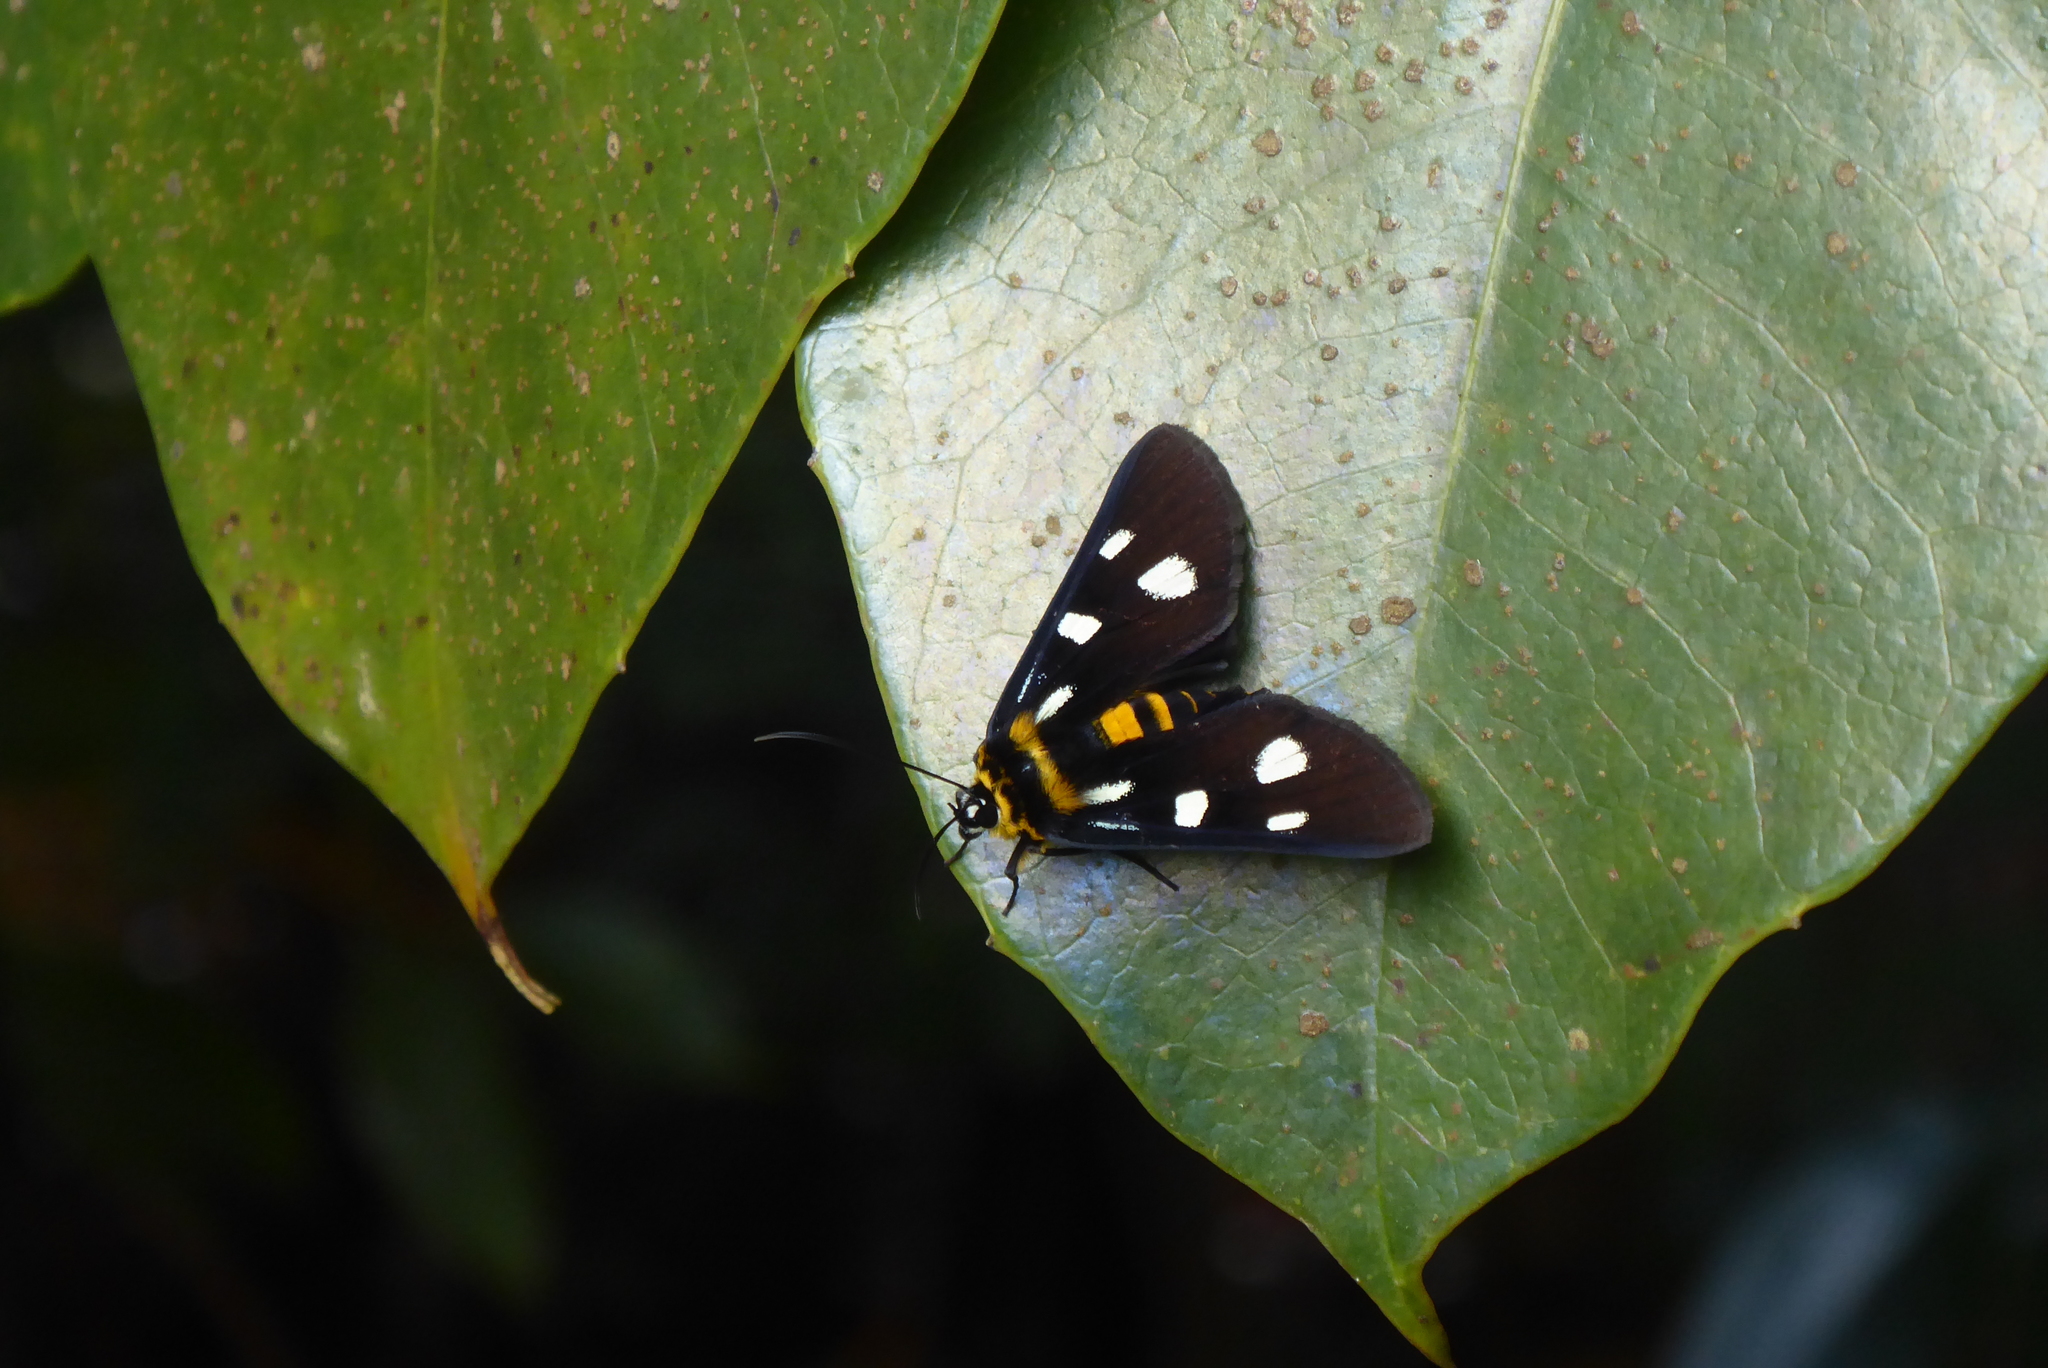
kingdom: Animalia
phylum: Arthropoda
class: Insecta
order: Lepidoptera
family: Noctuidae
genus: Burgena
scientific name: Burgena varia
